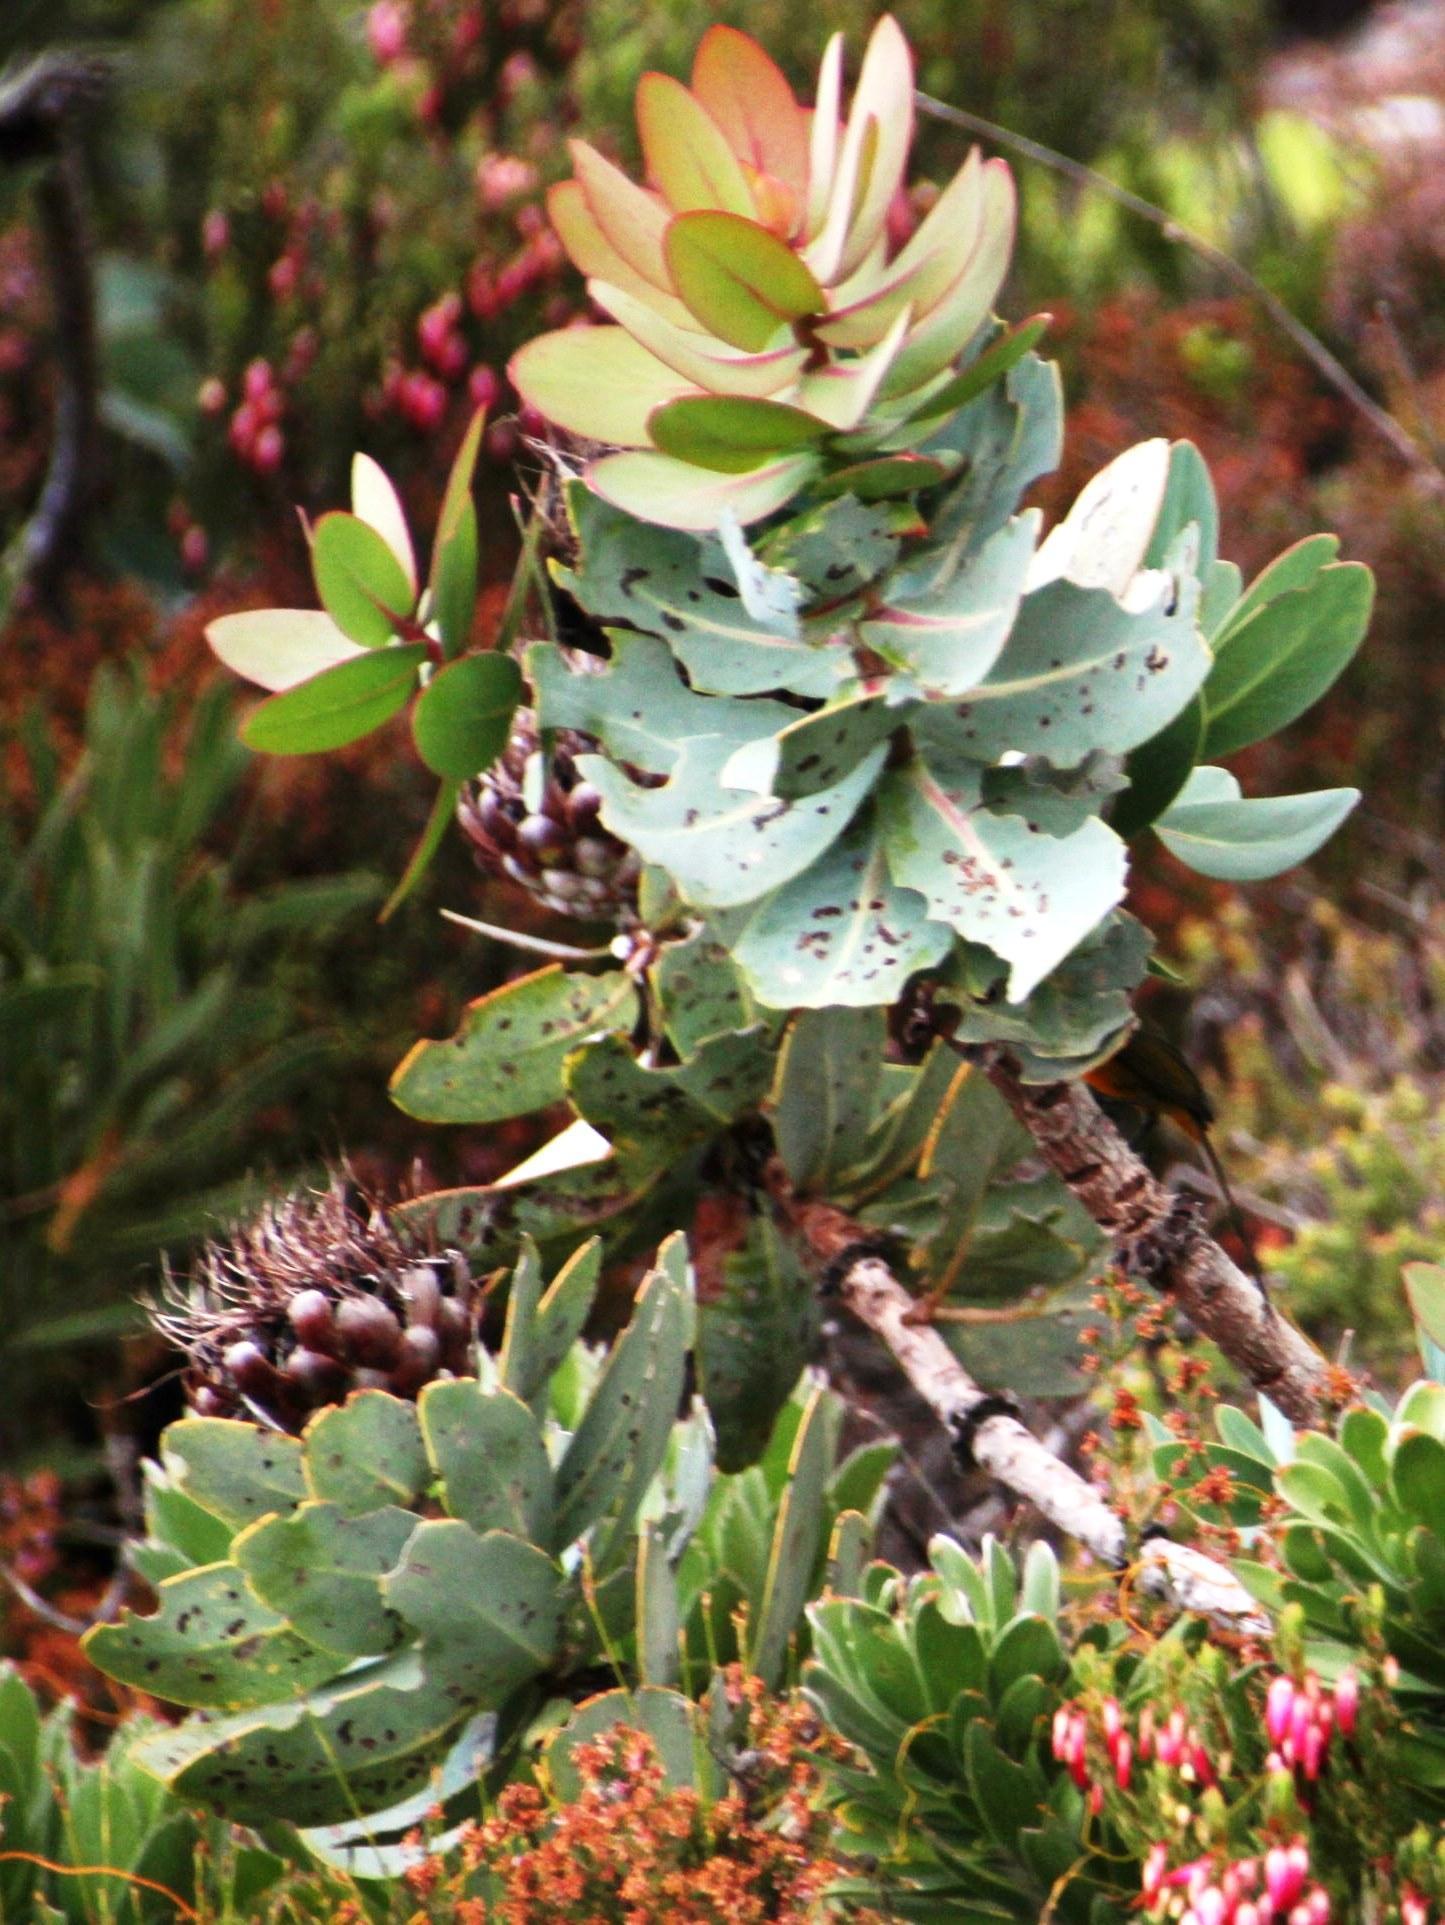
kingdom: Plantae
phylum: Tracheophyta
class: Magnoliopsida
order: Proteales
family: Proteaceae
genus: Protea
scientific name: Protea nitida
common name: Tree protea
